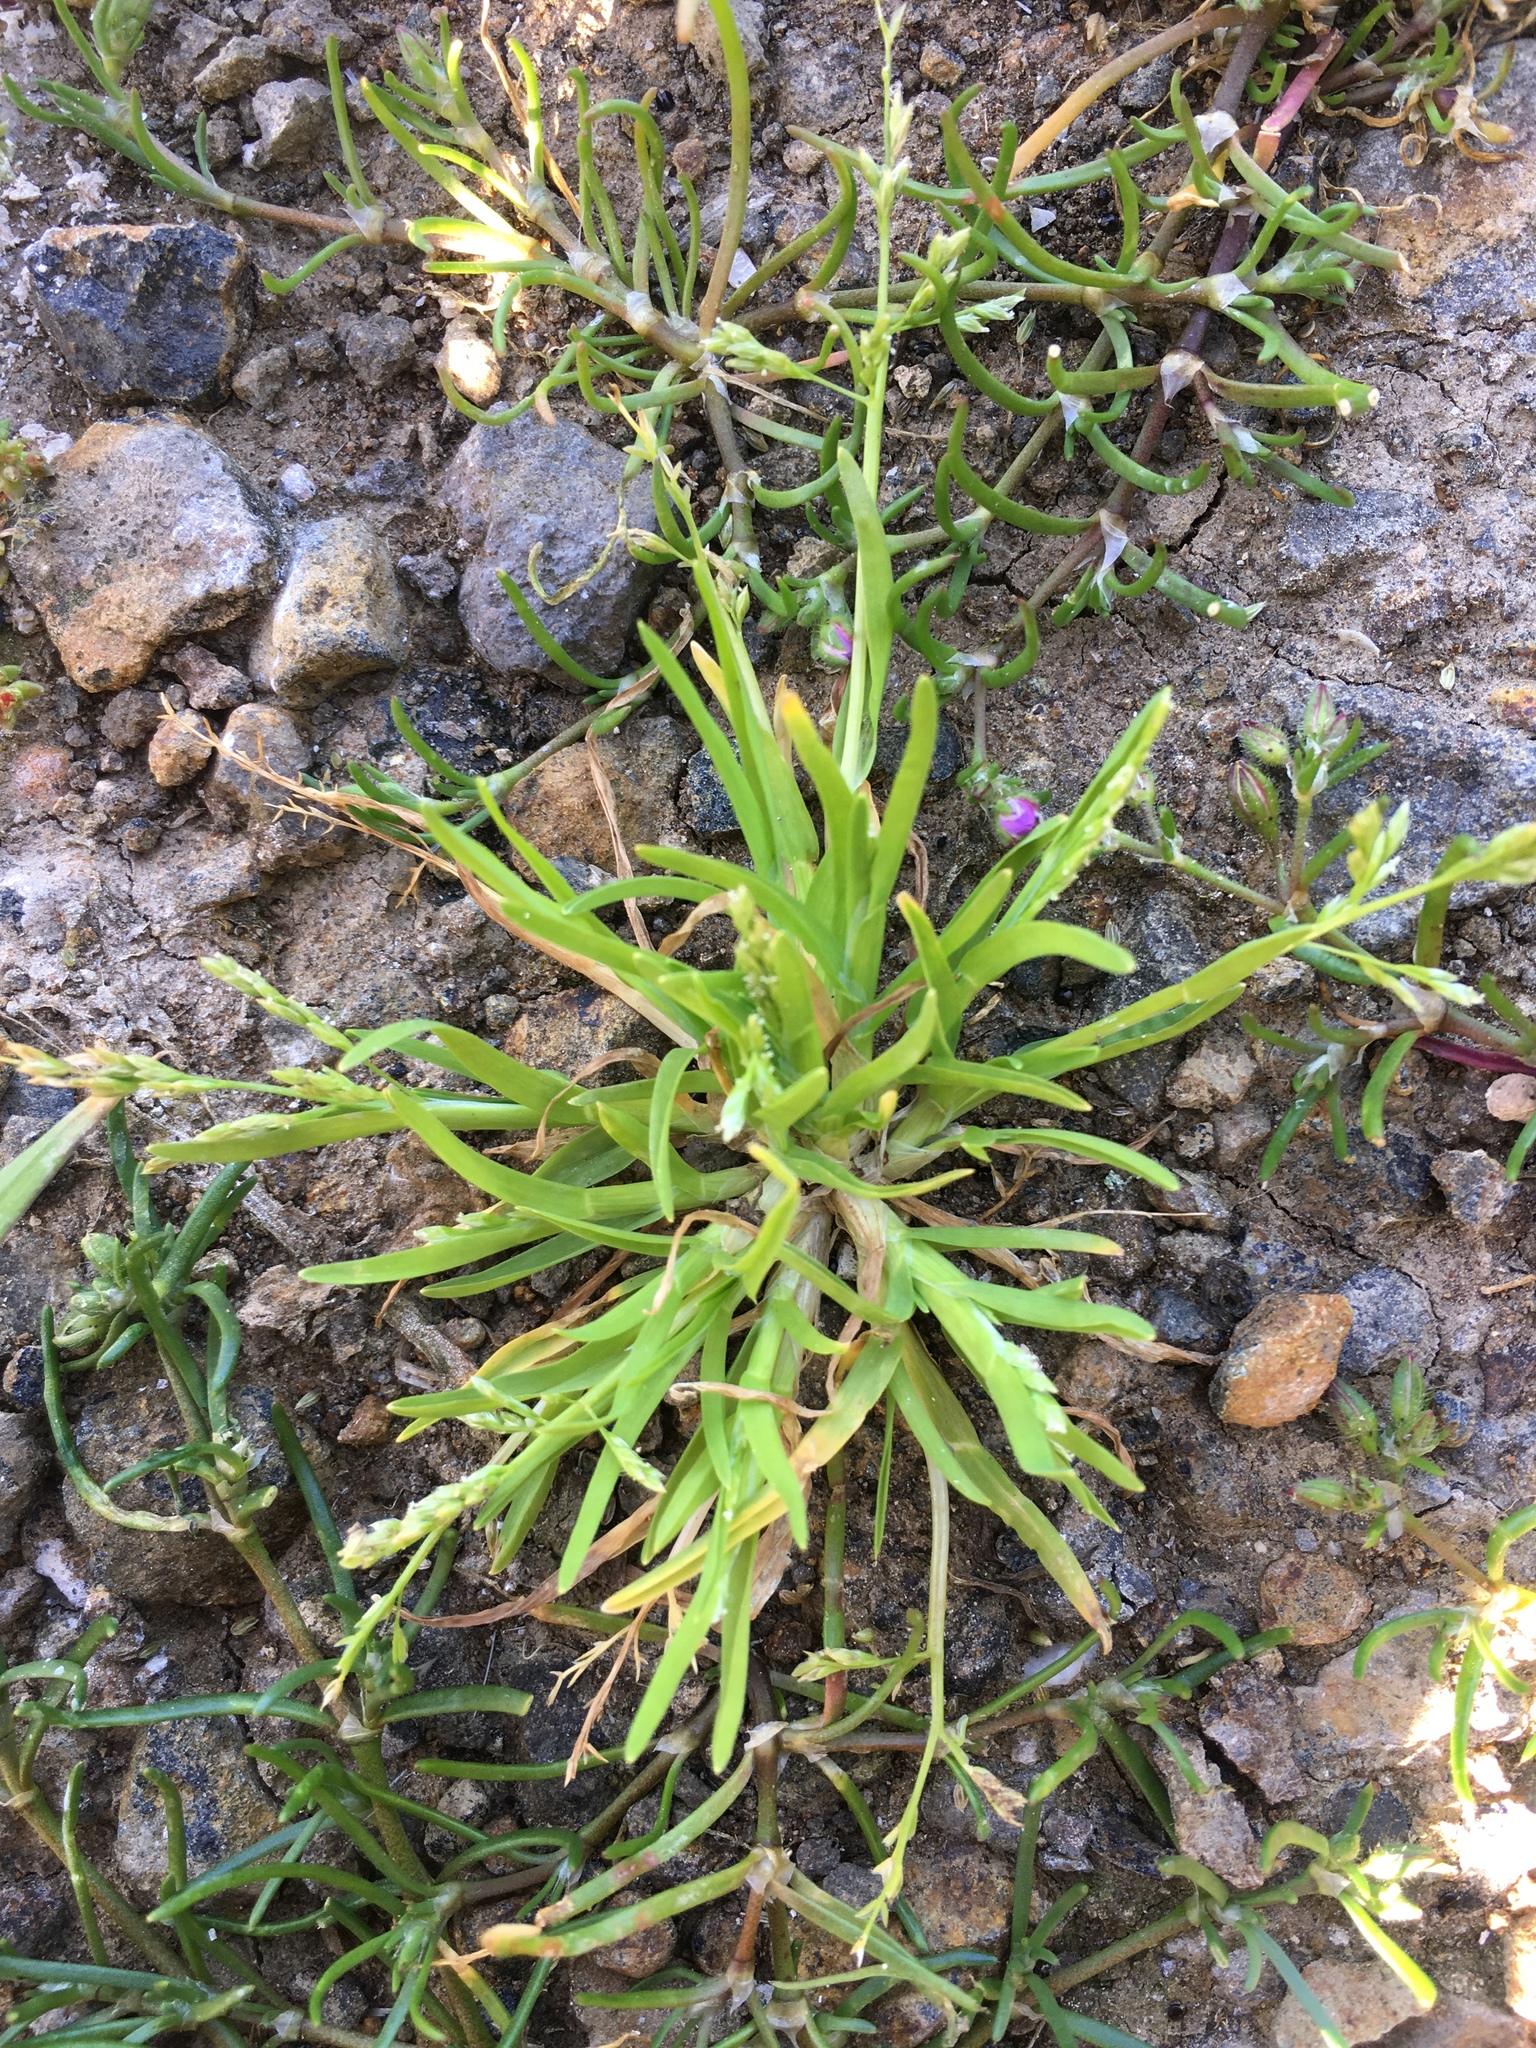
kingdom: Plantae
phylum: Tracheophyta
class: Liliopsida
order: Poales
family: Poaceae
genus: Poa
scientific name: Poa annua
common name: Annual bluegrass
